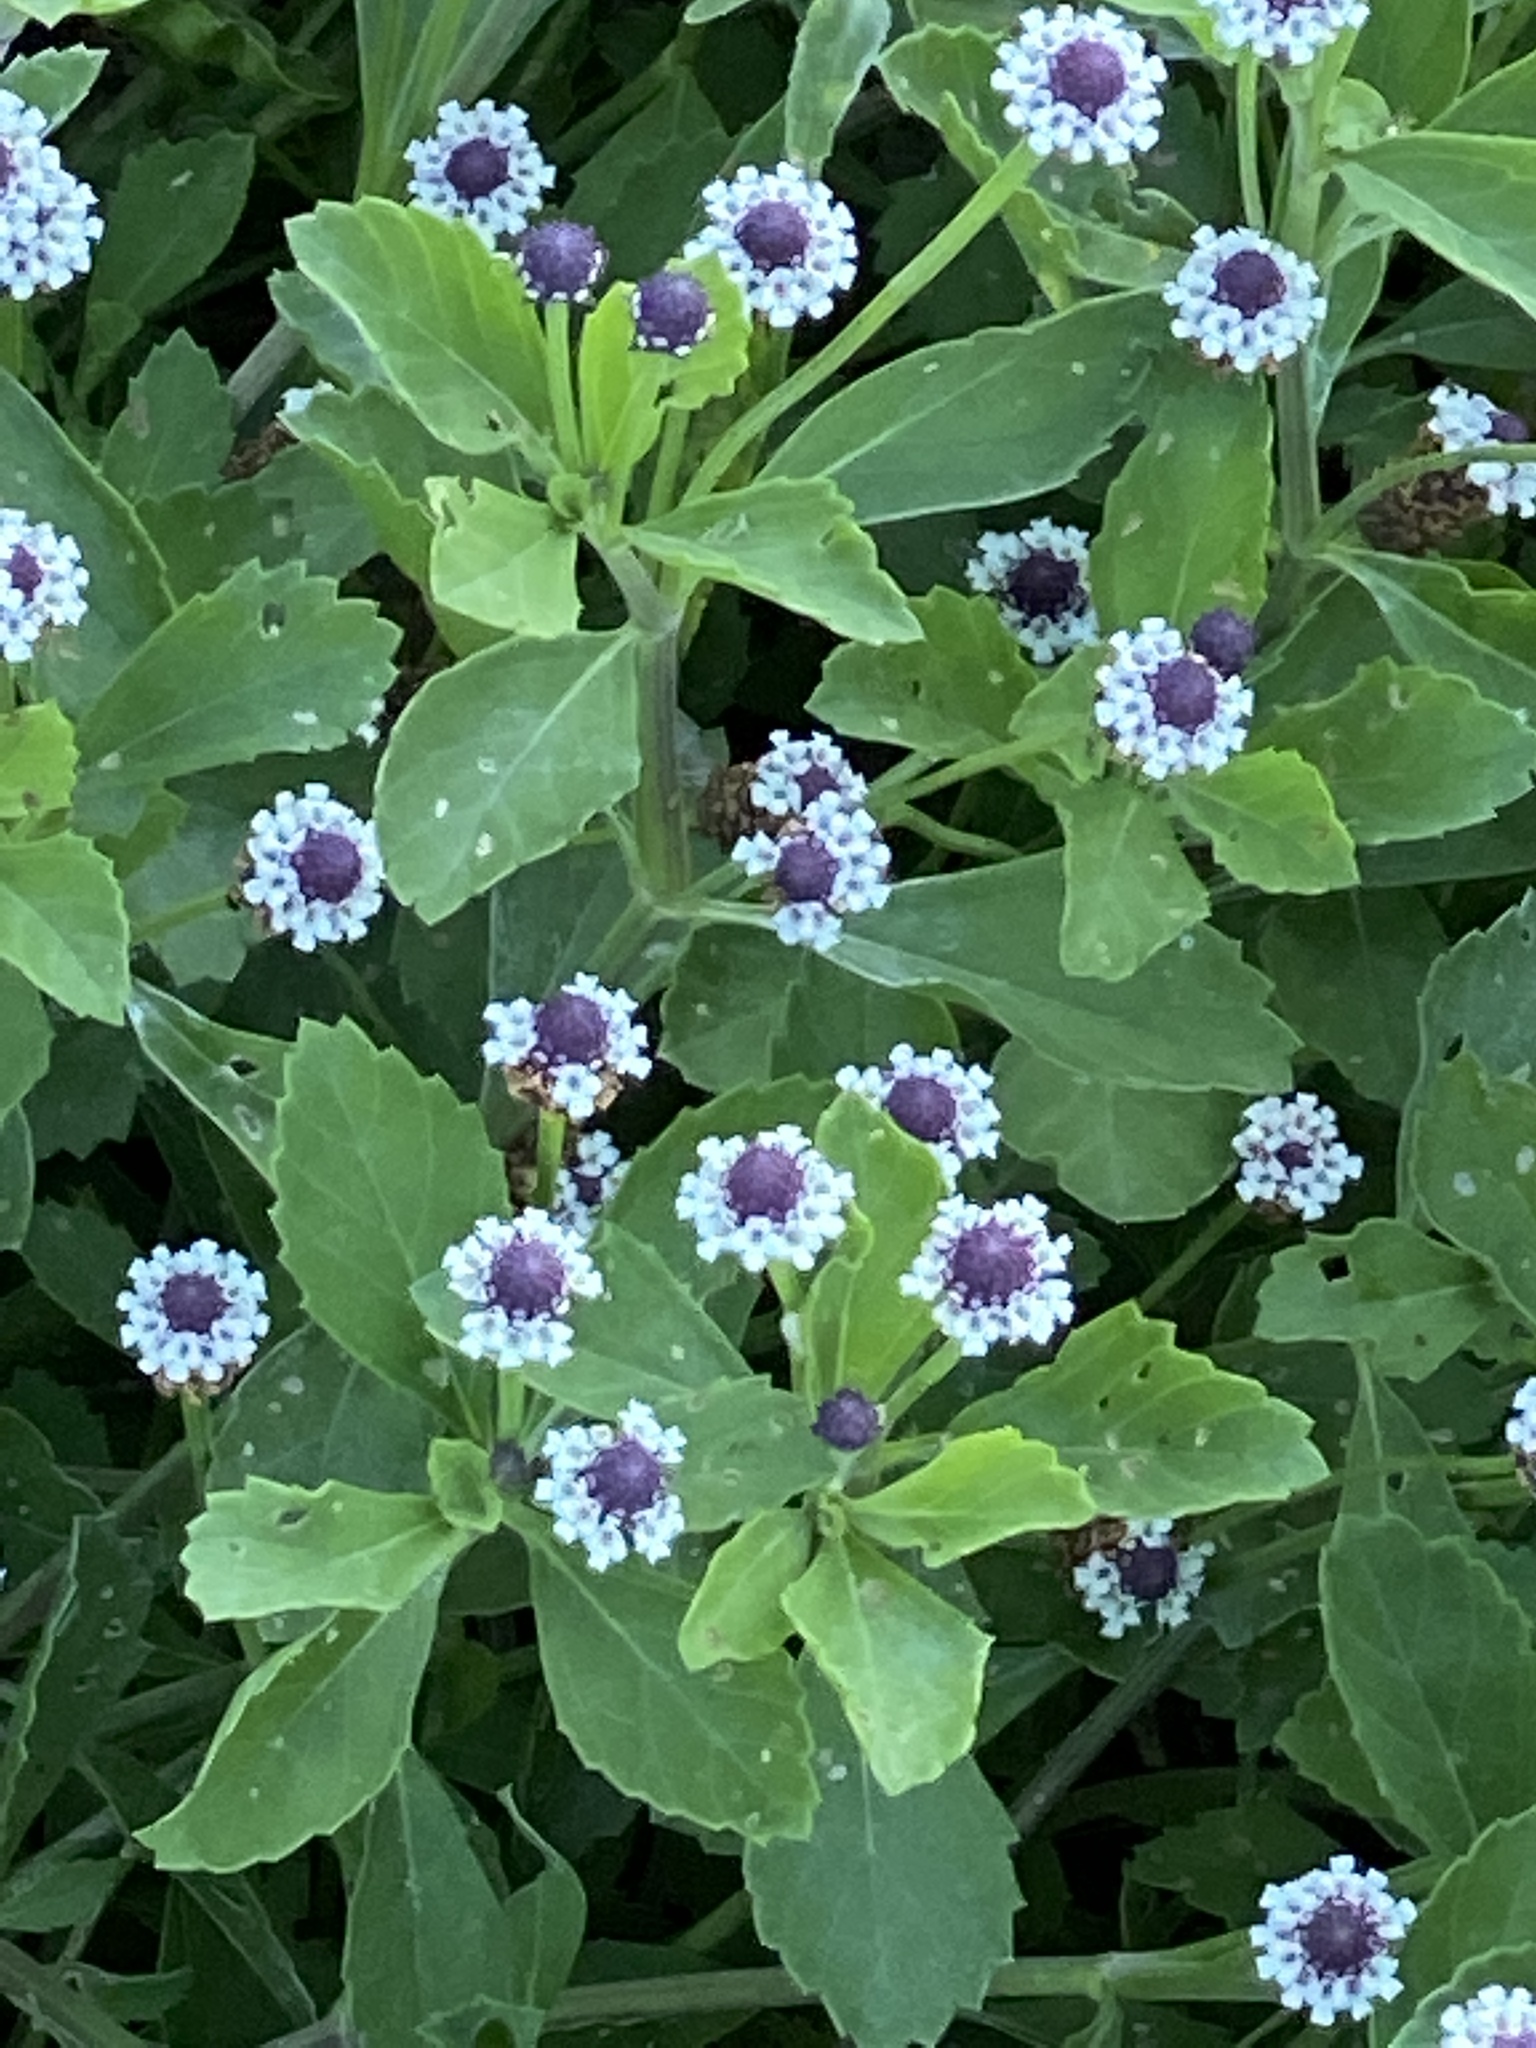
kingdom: Plantae
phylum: Tracheophyta
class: Magnoliopsida
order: Lamiales
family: Verbenaceae
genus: Phyla
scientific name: Phyla nodiflora
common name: Frogfruit
